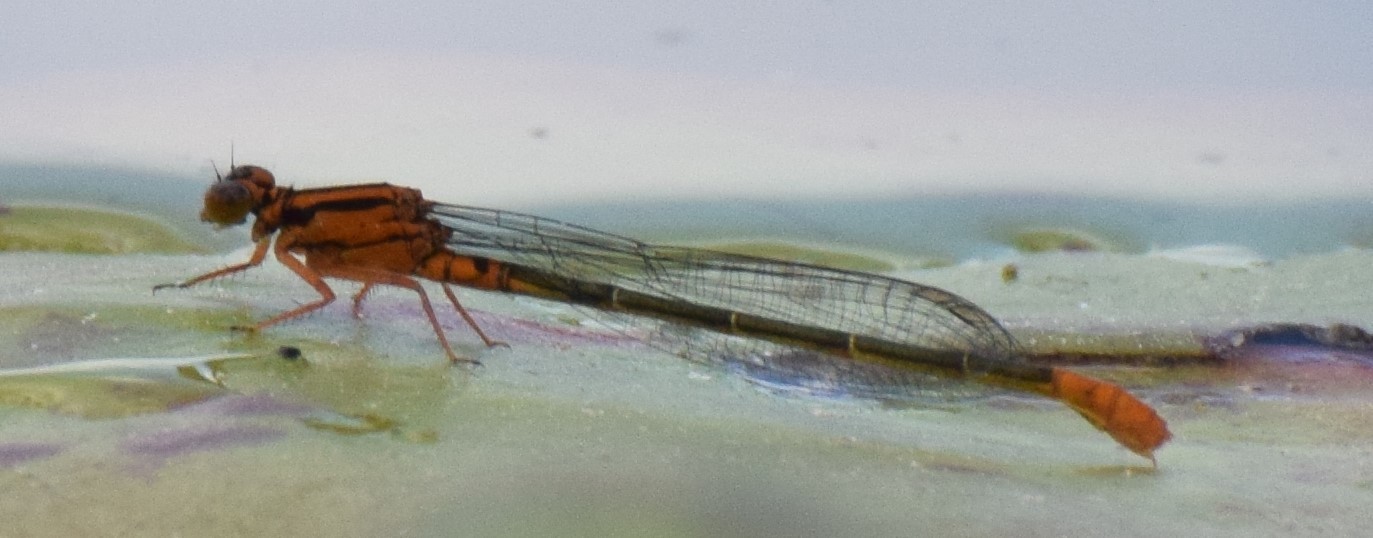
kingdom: Animalia
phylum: Arthropoda
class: Insecta
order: Odonata
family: Coenagrionidae
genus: Ischnura
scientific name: Ischnura kellicotti
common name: Lilypad forktail
